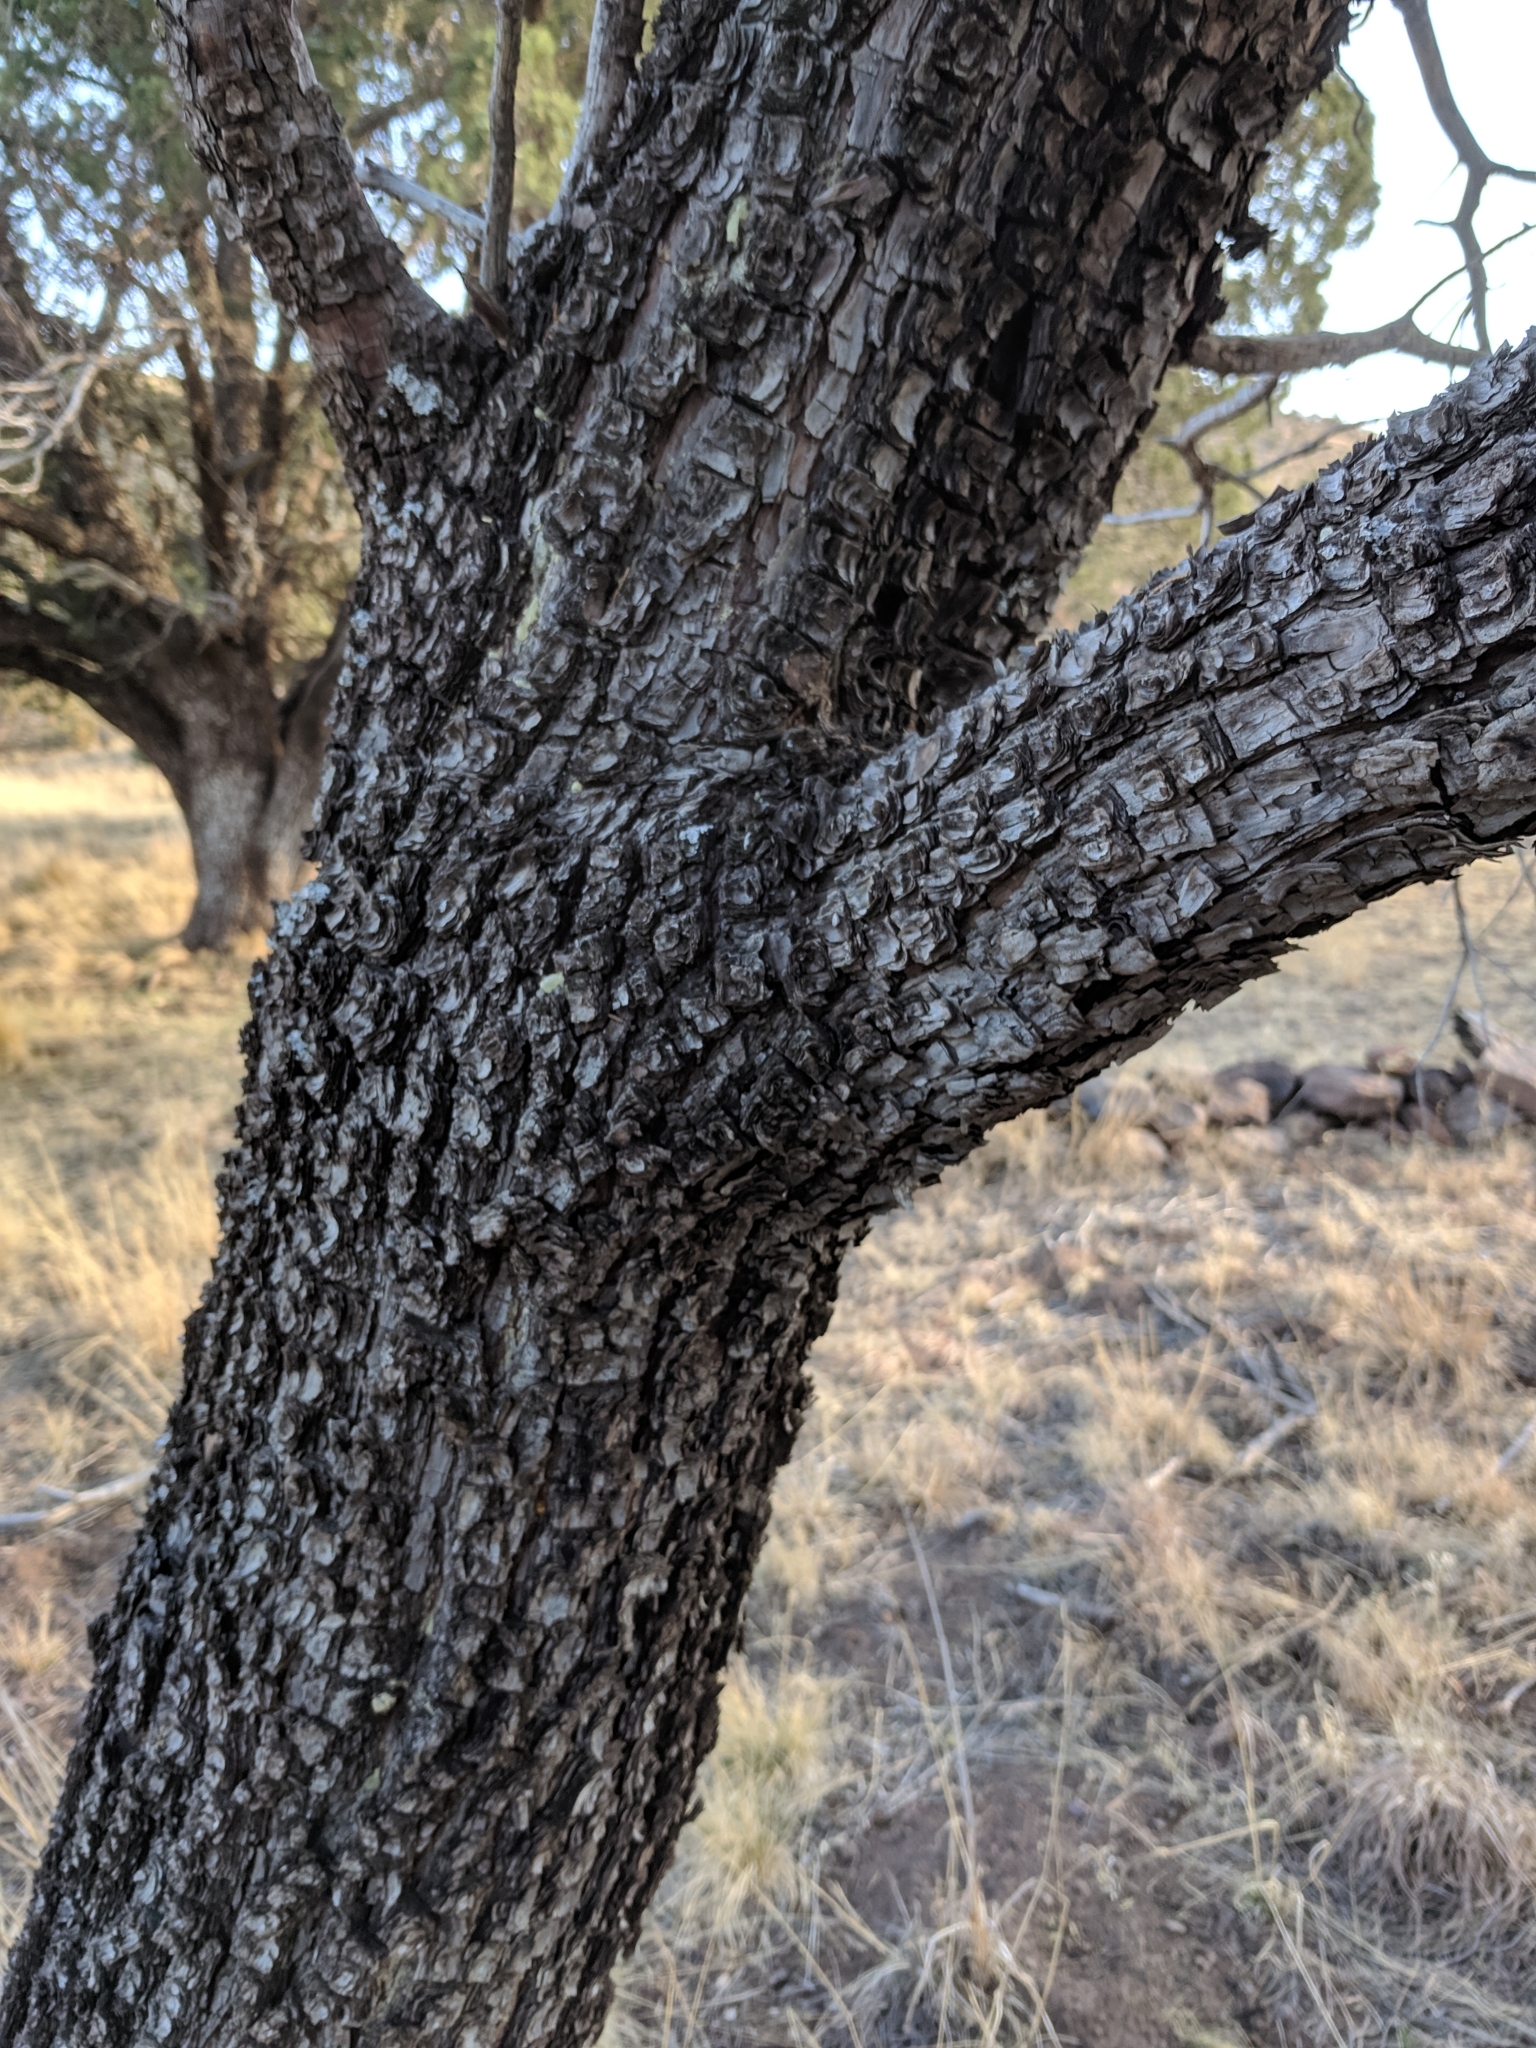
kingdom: Plantae
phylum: Tracheophyta
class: Pinopsida
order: Pinales
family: Cupressaceae
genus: Juniperus
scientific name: Juniperus deppeana
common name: Alligator juniper
